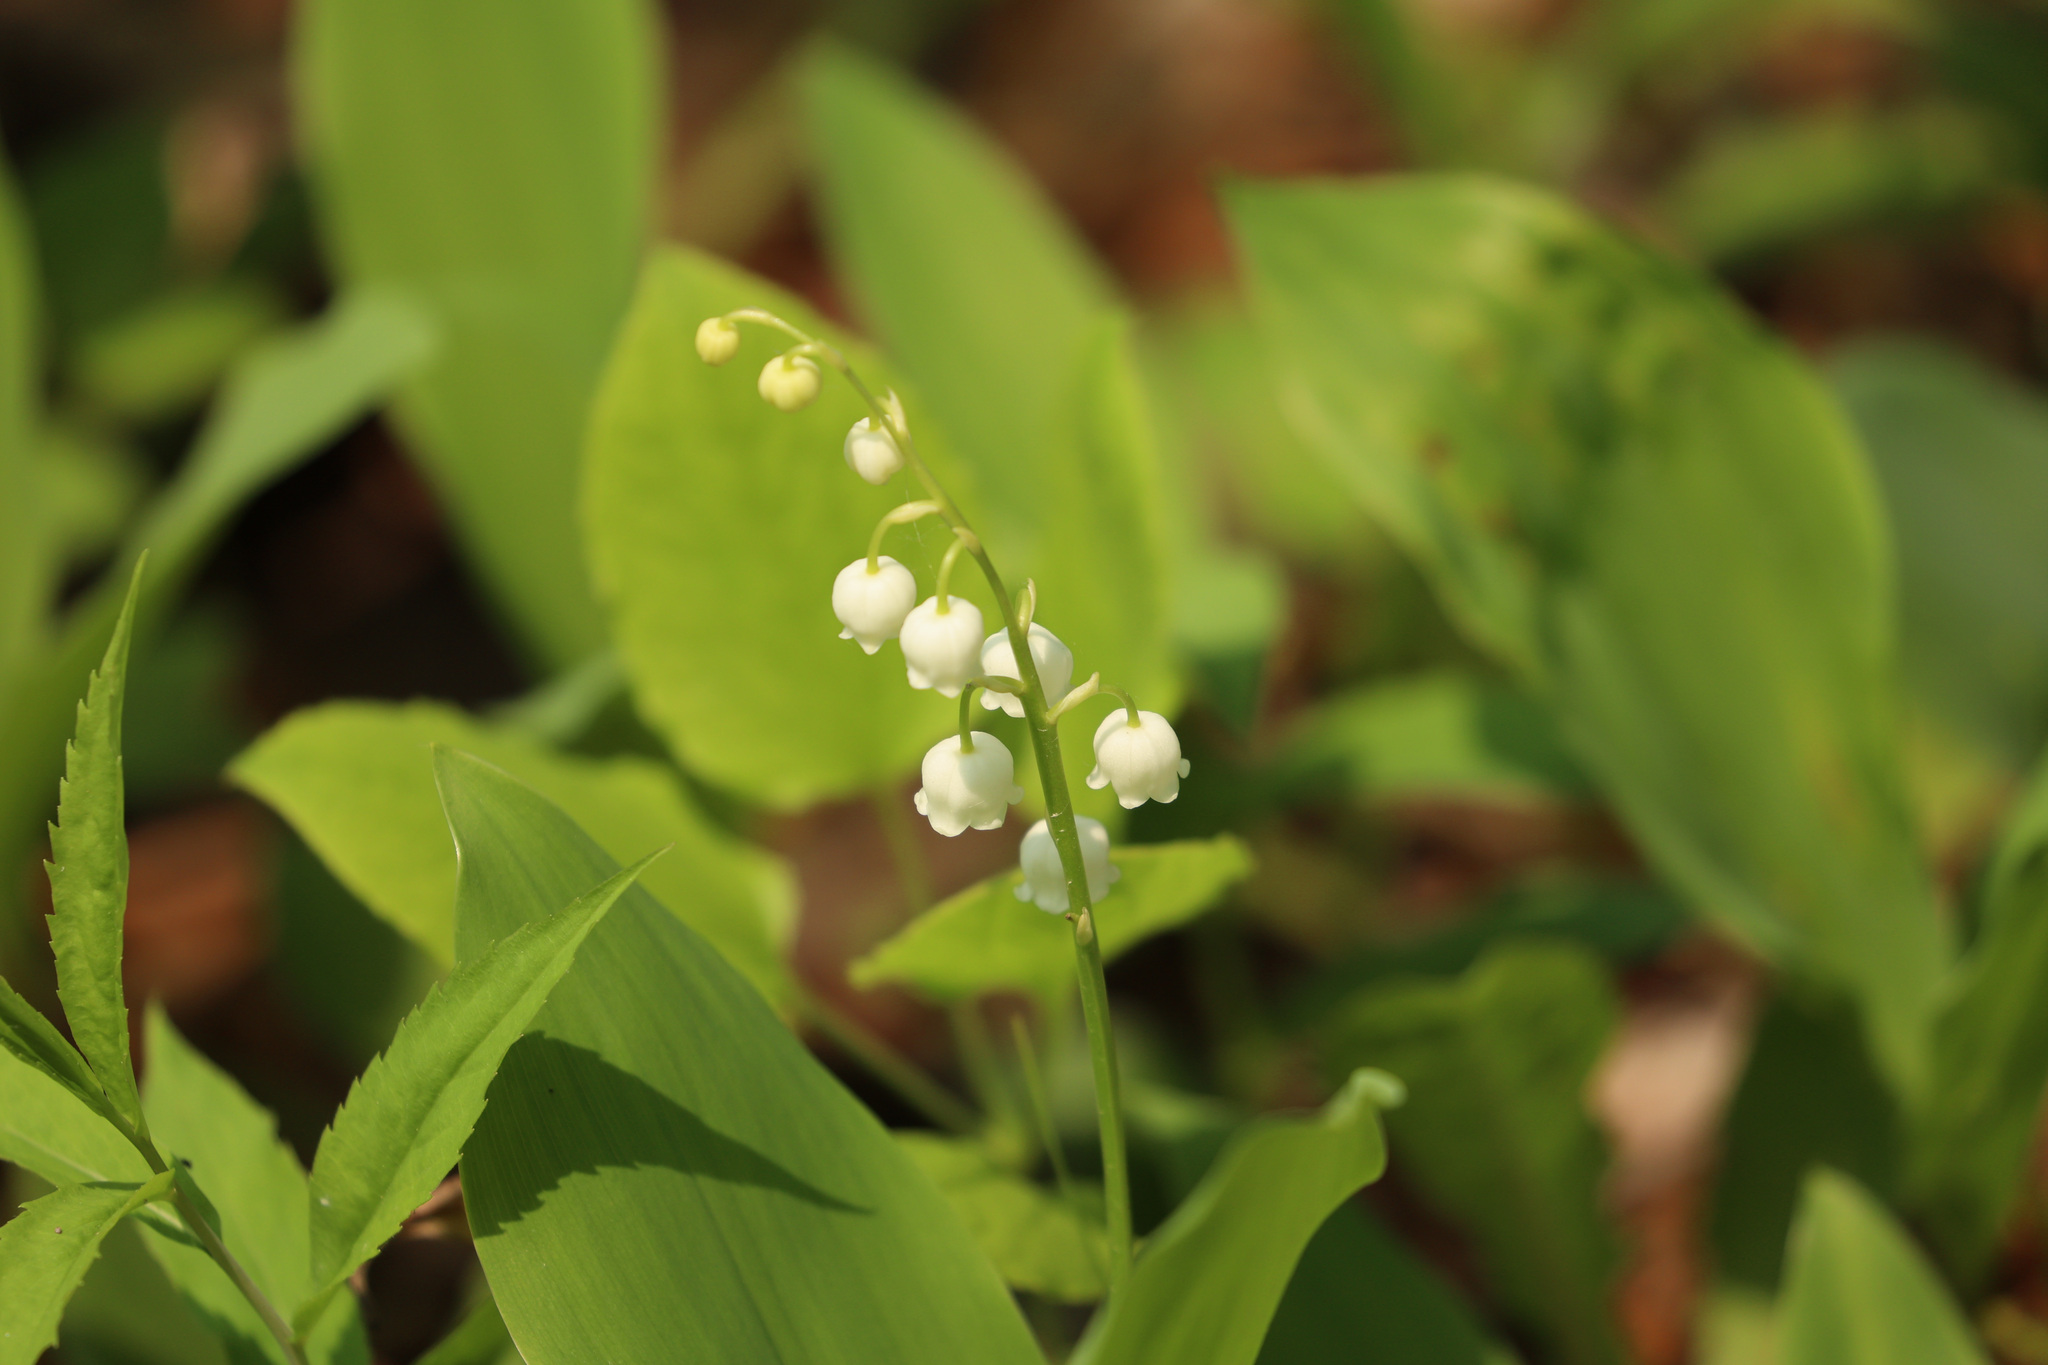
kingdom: Plantae
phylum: Tracheophyta
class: Liliopsida
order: Asparagales
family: Asparagaceae
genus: Convallaria
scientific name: Convallaria majalis
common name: Lily-of-the-valley
